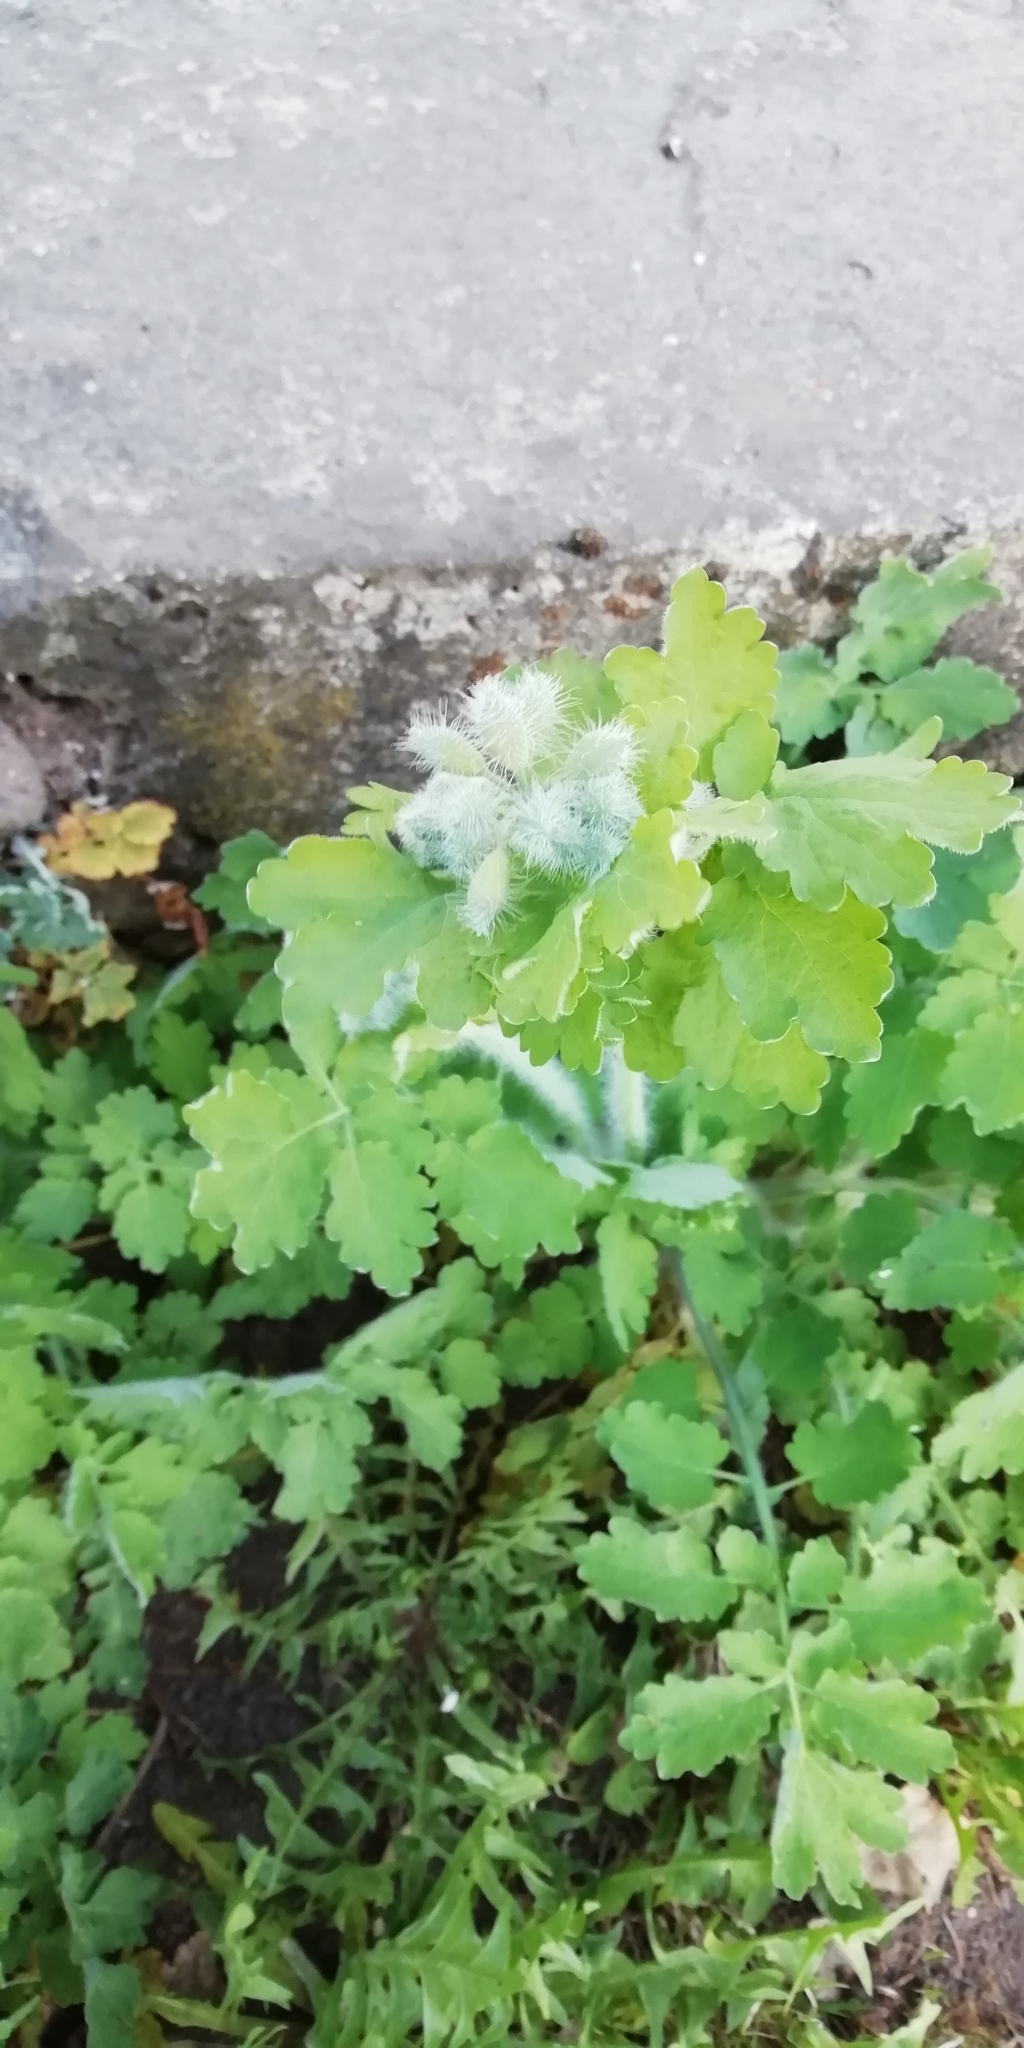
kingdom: Plantae
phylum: Tracheophyta
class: Magnoliopsida
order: Ranunculales
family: Papaveraceae
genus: Chelidonium
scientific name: Chelidonium majus
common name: Greater celandine
